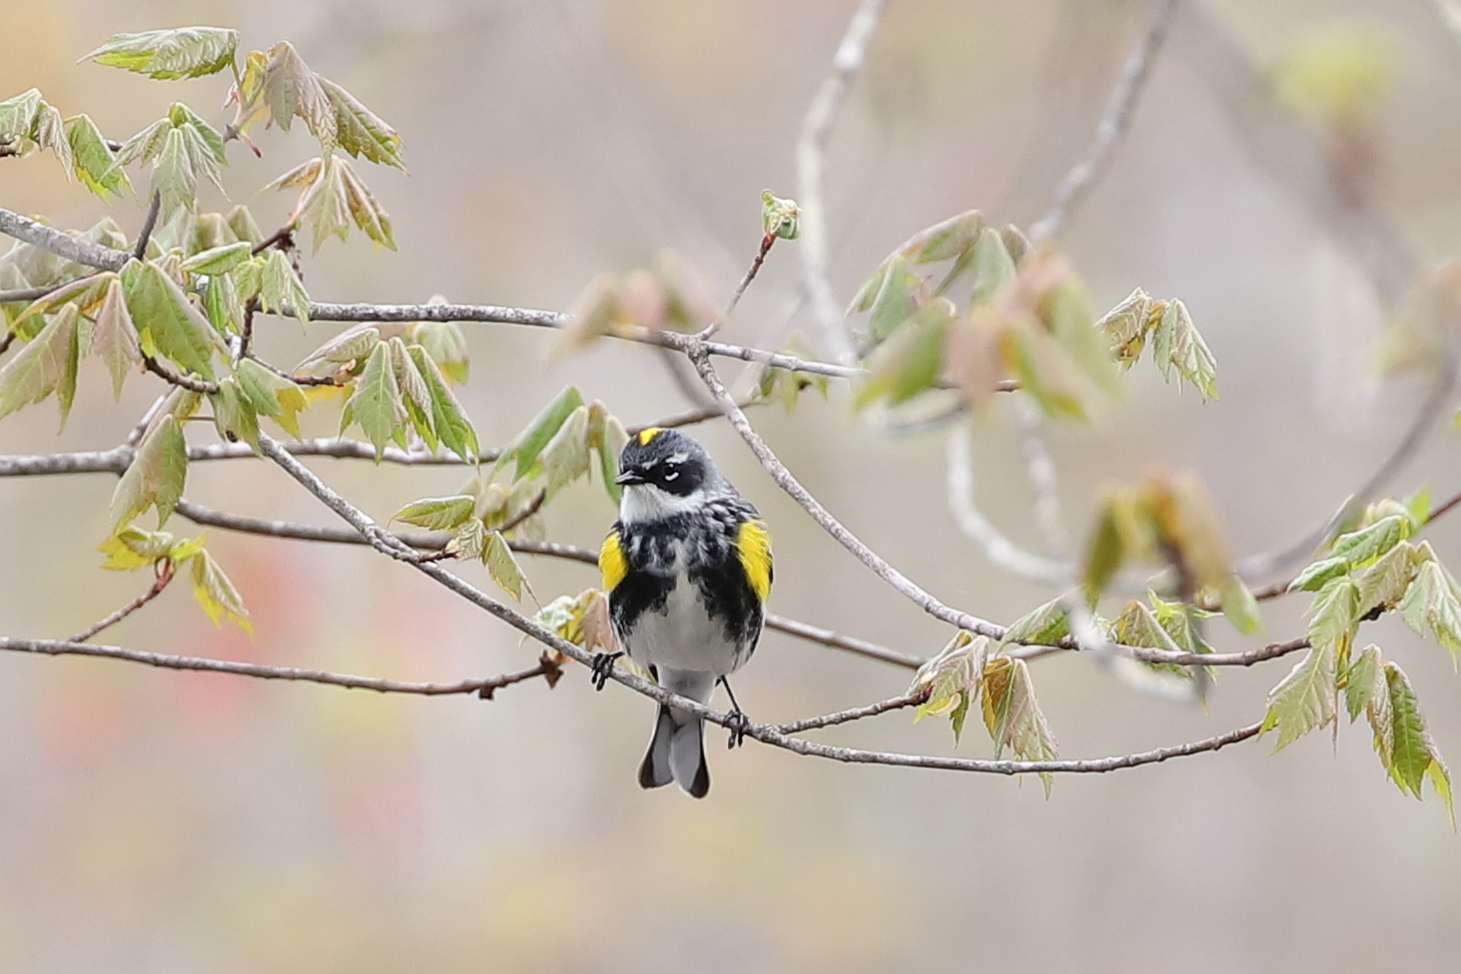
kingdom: Animalia
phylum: Chordata
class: Aves
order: Passeriformes
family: Parulidae
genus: Setophaga
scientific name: Setophaga coronata
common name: Myrtle warbler
